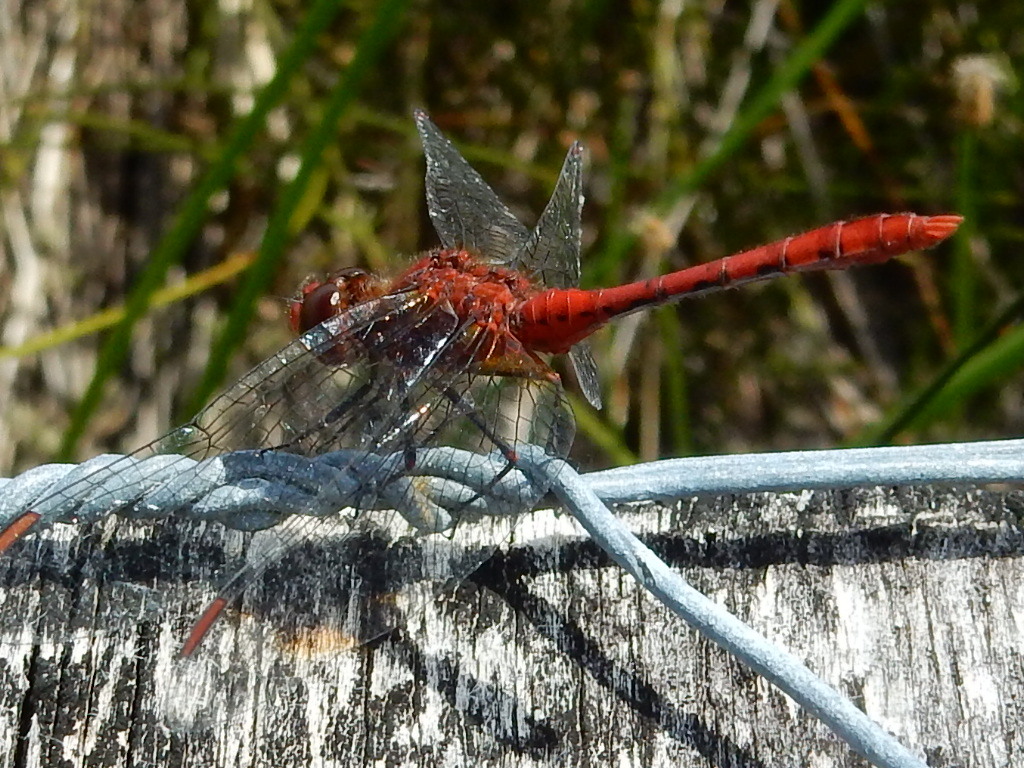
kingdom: Animalia
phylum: Arthropoda
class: Insecta
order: Odonata
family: Libellulidae
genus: Diplacodes
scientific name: Diplacodes bipunctata
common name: Red percher dragonfly
